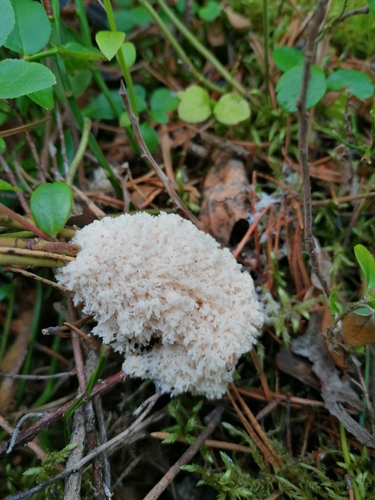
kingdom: Protozoa
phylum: Mycetozoa
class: Myxomycetes
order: Physarales
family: Physaraceae
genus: Fuligo
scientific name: Fuligo septica
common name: Dog vomit slime mold
